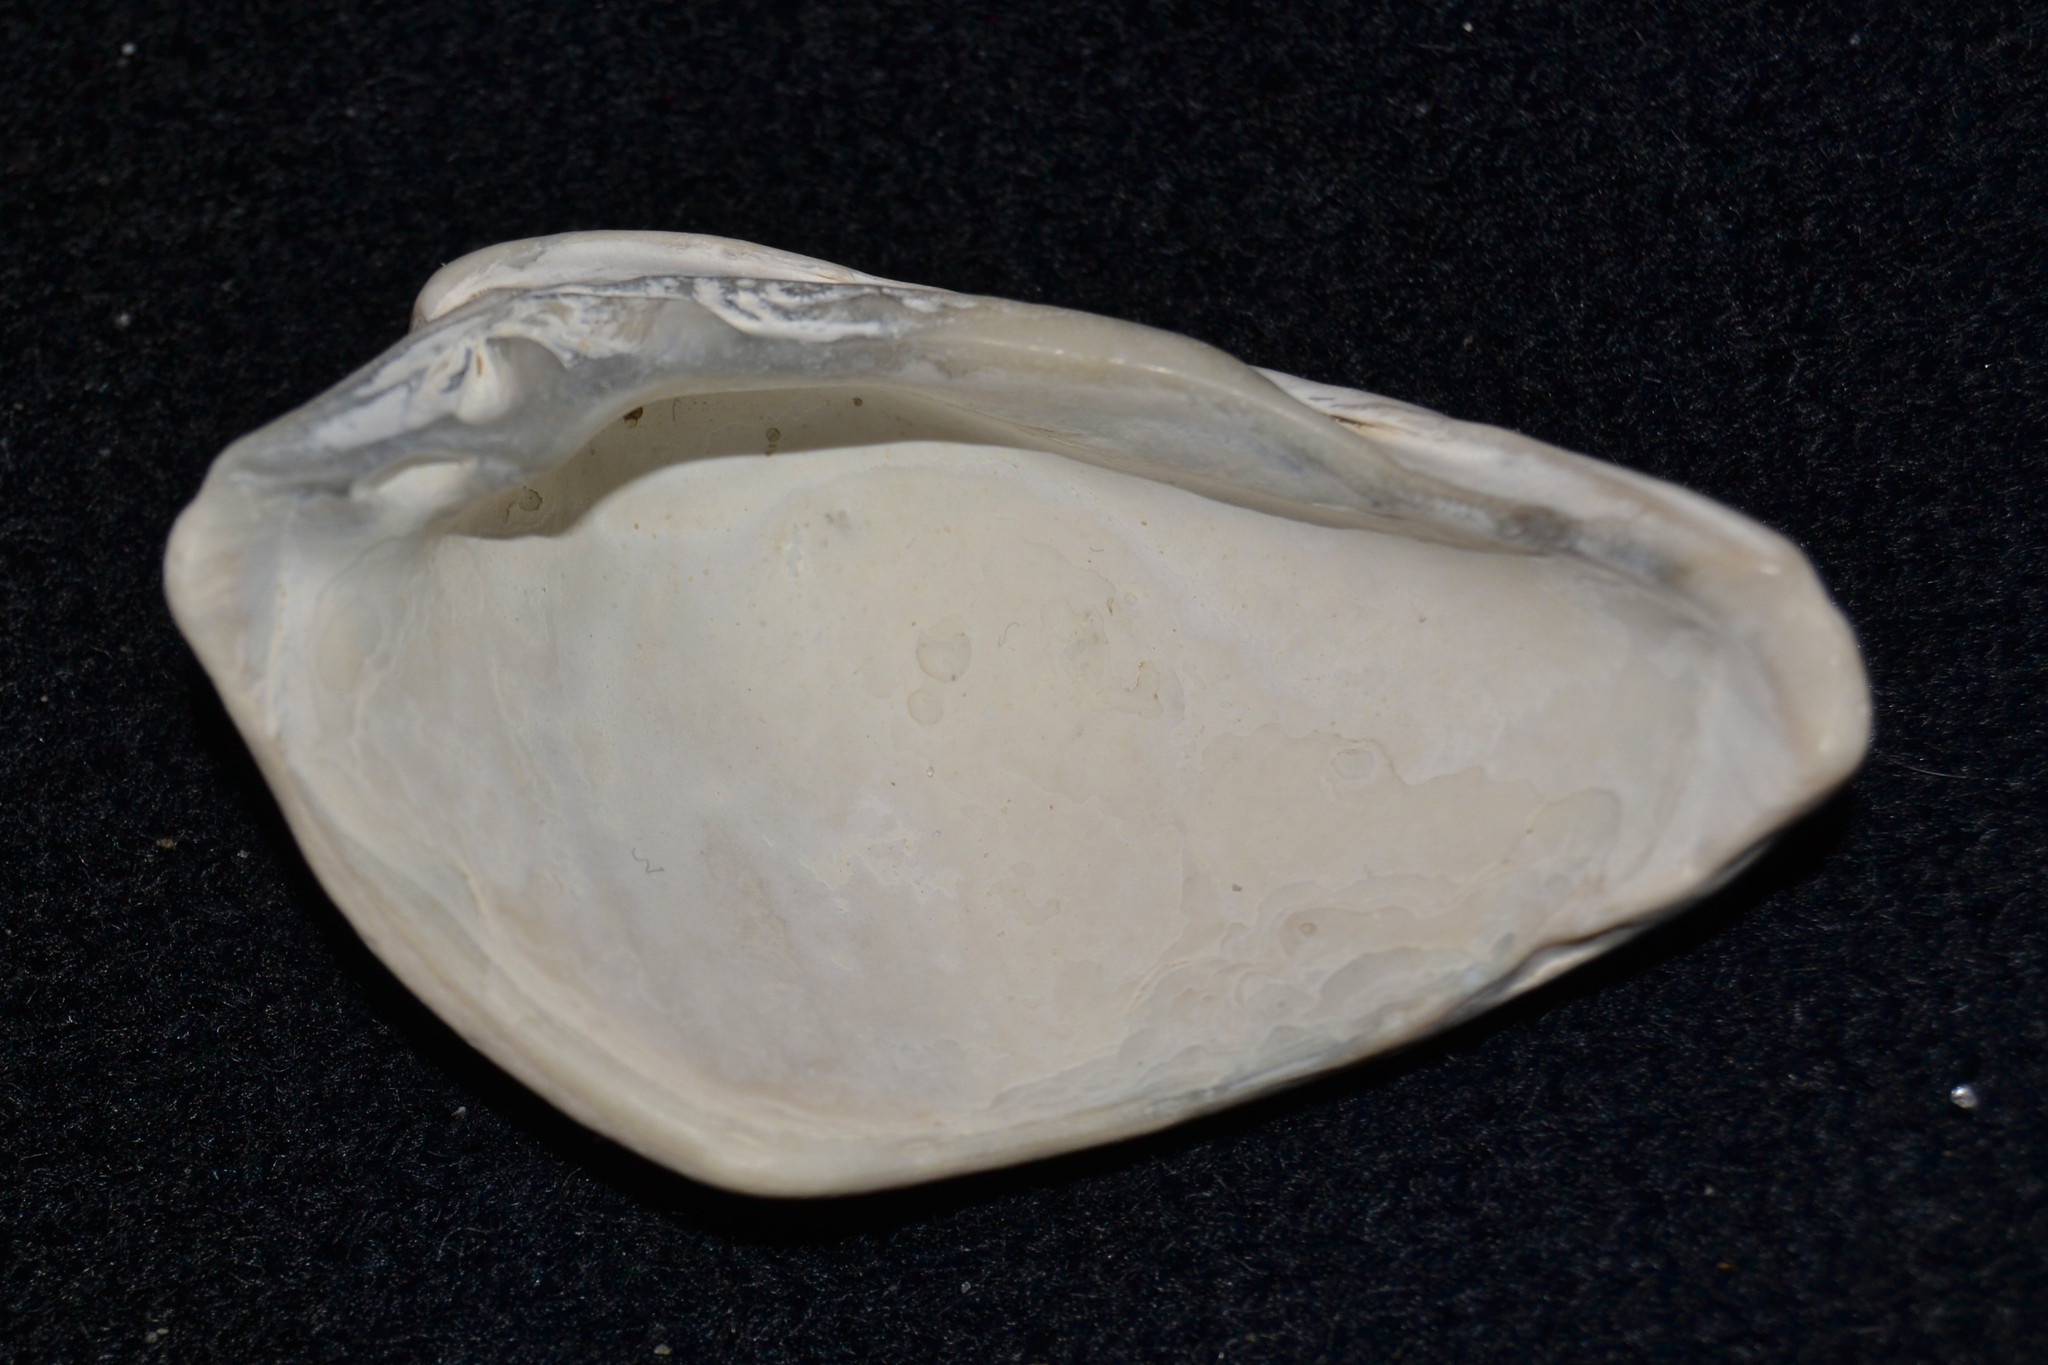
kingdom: Animalia
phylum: Mollusca
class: Bivalvia
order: Venerida
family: Veneridae
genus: Mercenaria
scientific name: Mercenaria mercenaria
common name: American hard-shelled clam
